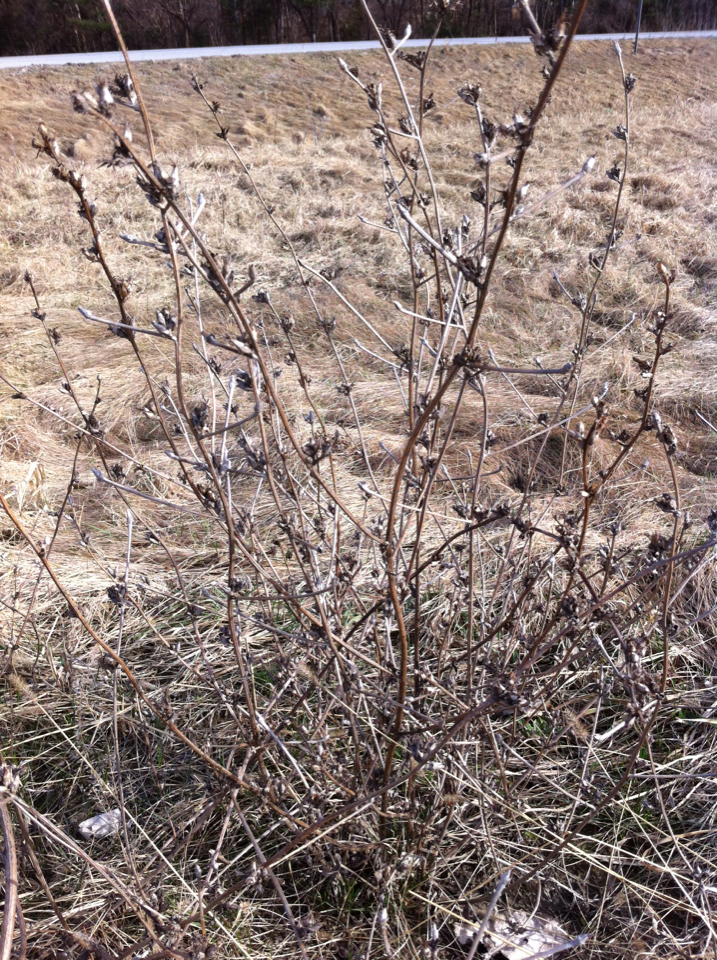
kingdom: Plantae
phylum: Tracheophyta
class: Magnoliopsida
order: Asterales
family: Asteraceae
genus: Cichorium
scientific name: Cichorium intybus
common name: Chicory
